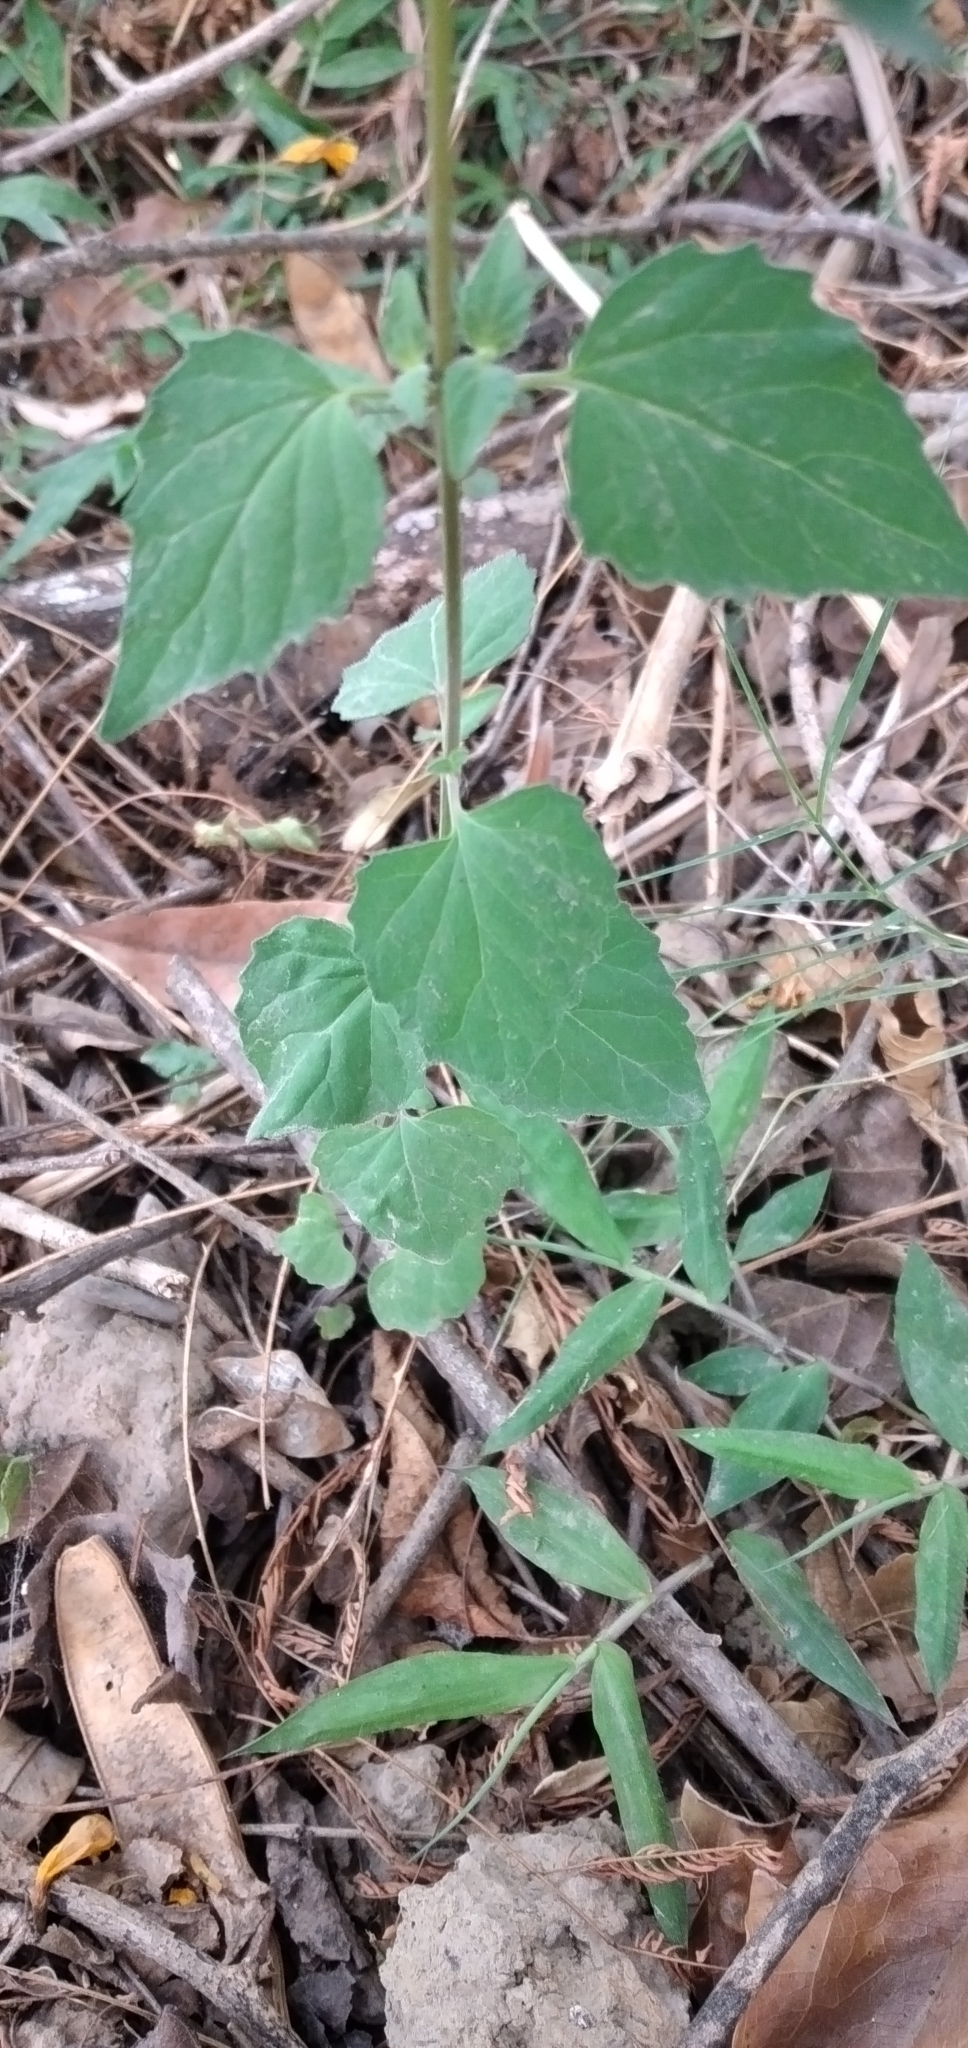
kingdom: Plantae
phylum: Tracheophyta
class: Magnoliopsida
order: Lamiales
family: Lamiaceae
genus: Scutellaria
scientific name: Scutellaria purpurascens
